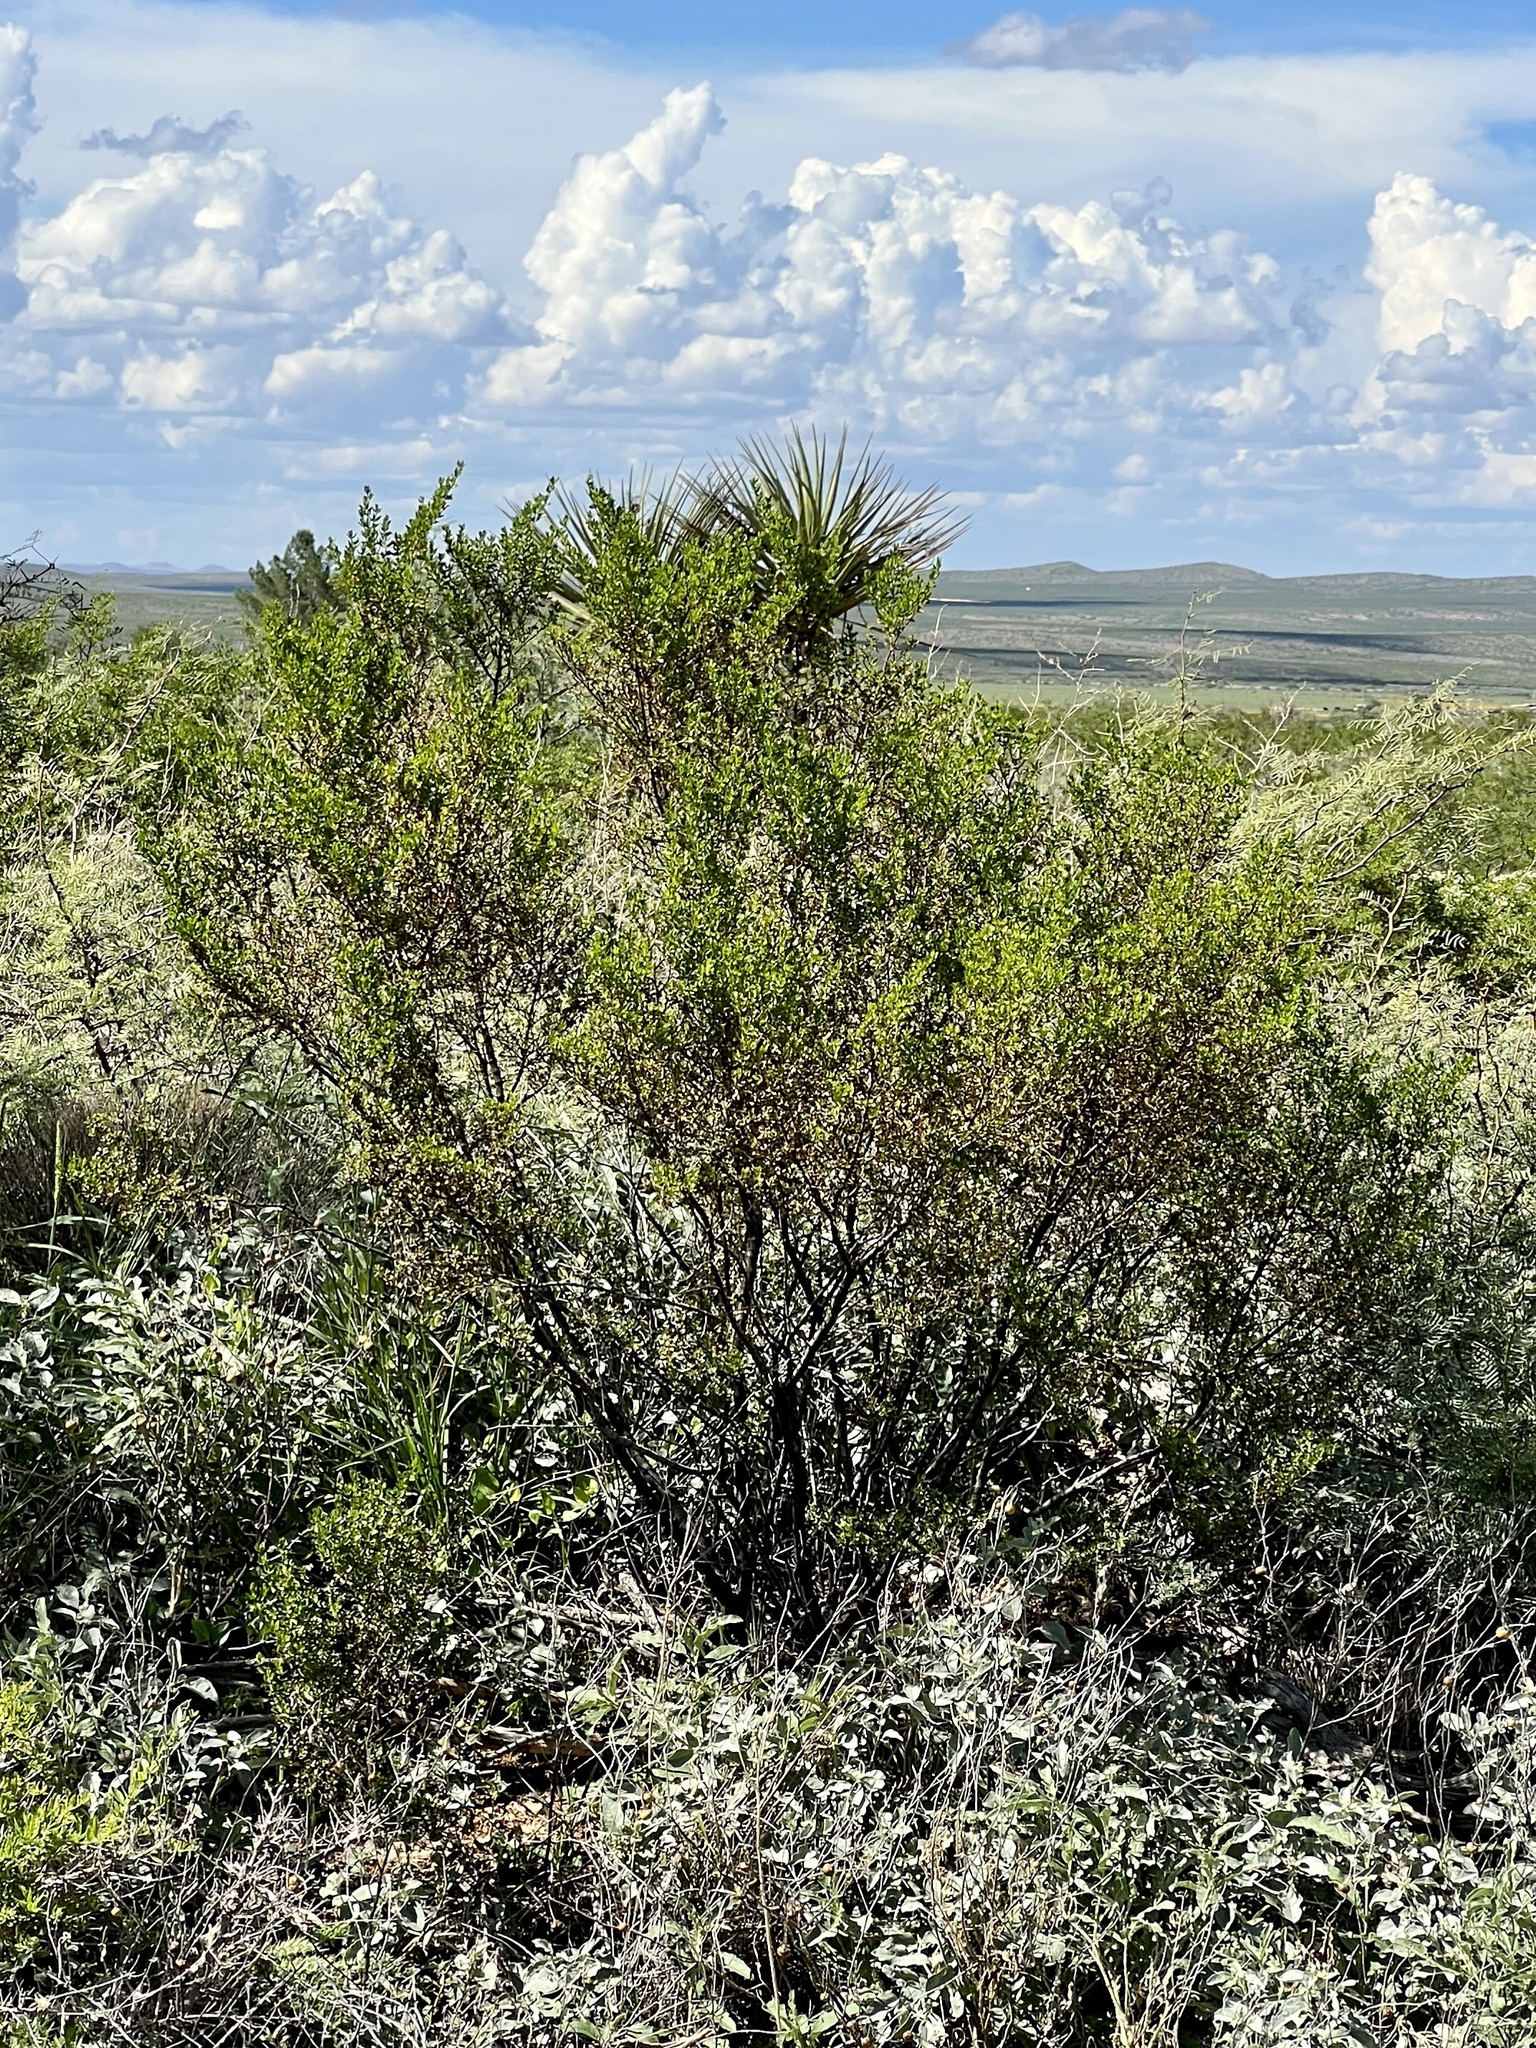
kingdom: Plantae
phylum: Tracheophyta
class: Magnoliopsida
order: Zygophyllales
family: Zygophyllaceae
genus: Larrea
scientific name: Larrea tridentata
